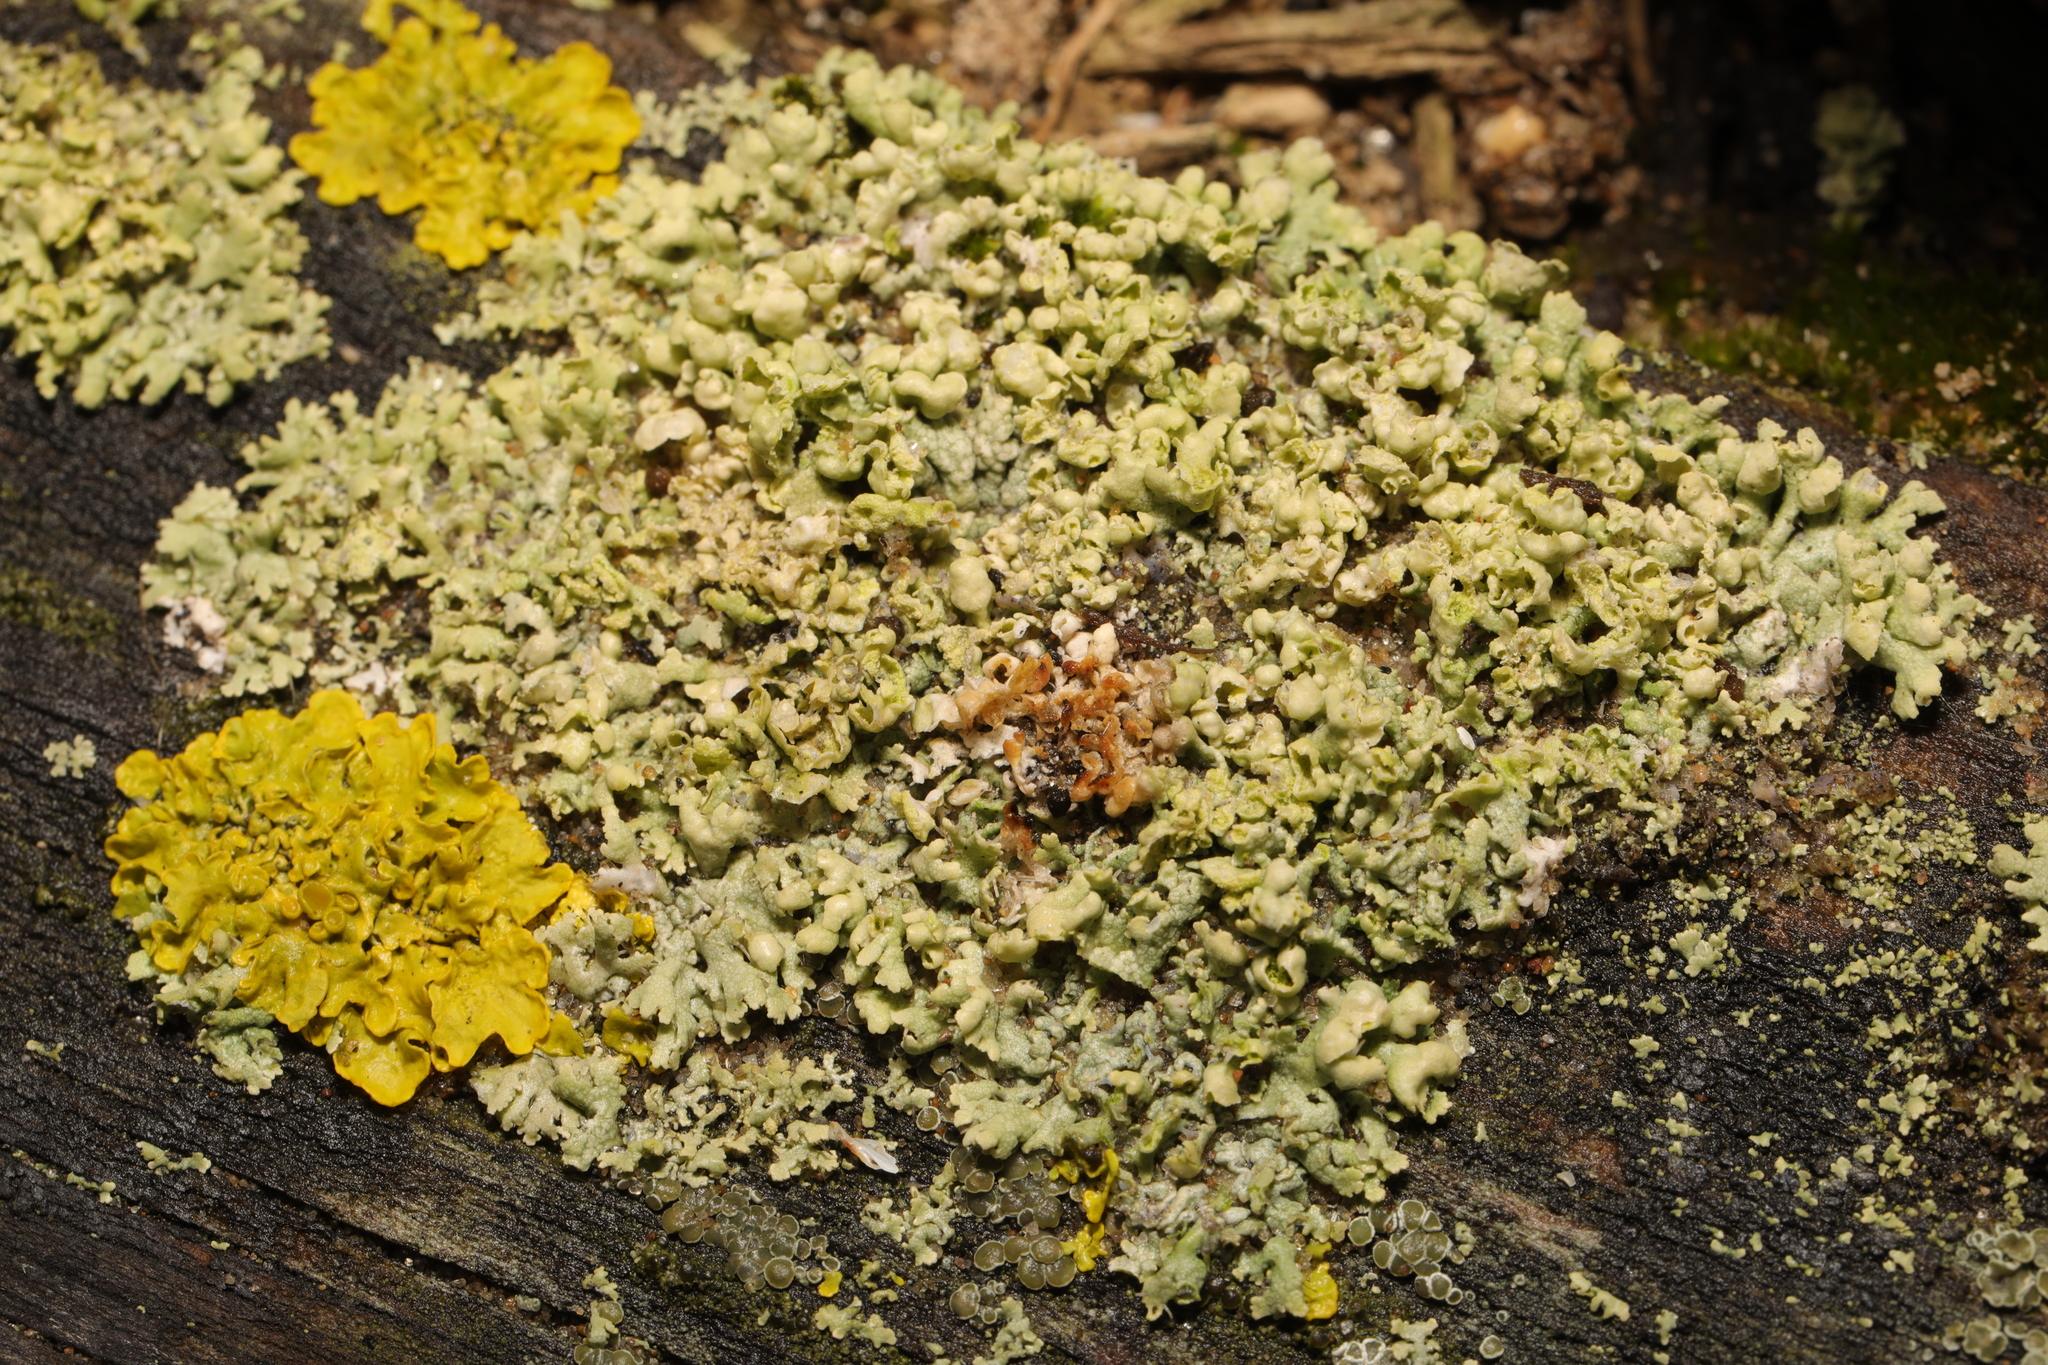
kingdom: Fungi
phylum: Ascomycota
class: Lecanoromycetes
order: Caliciales
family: Physciaceae
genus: Physcia
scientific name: Physcia adscendens
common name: Hooded rosette lichen
